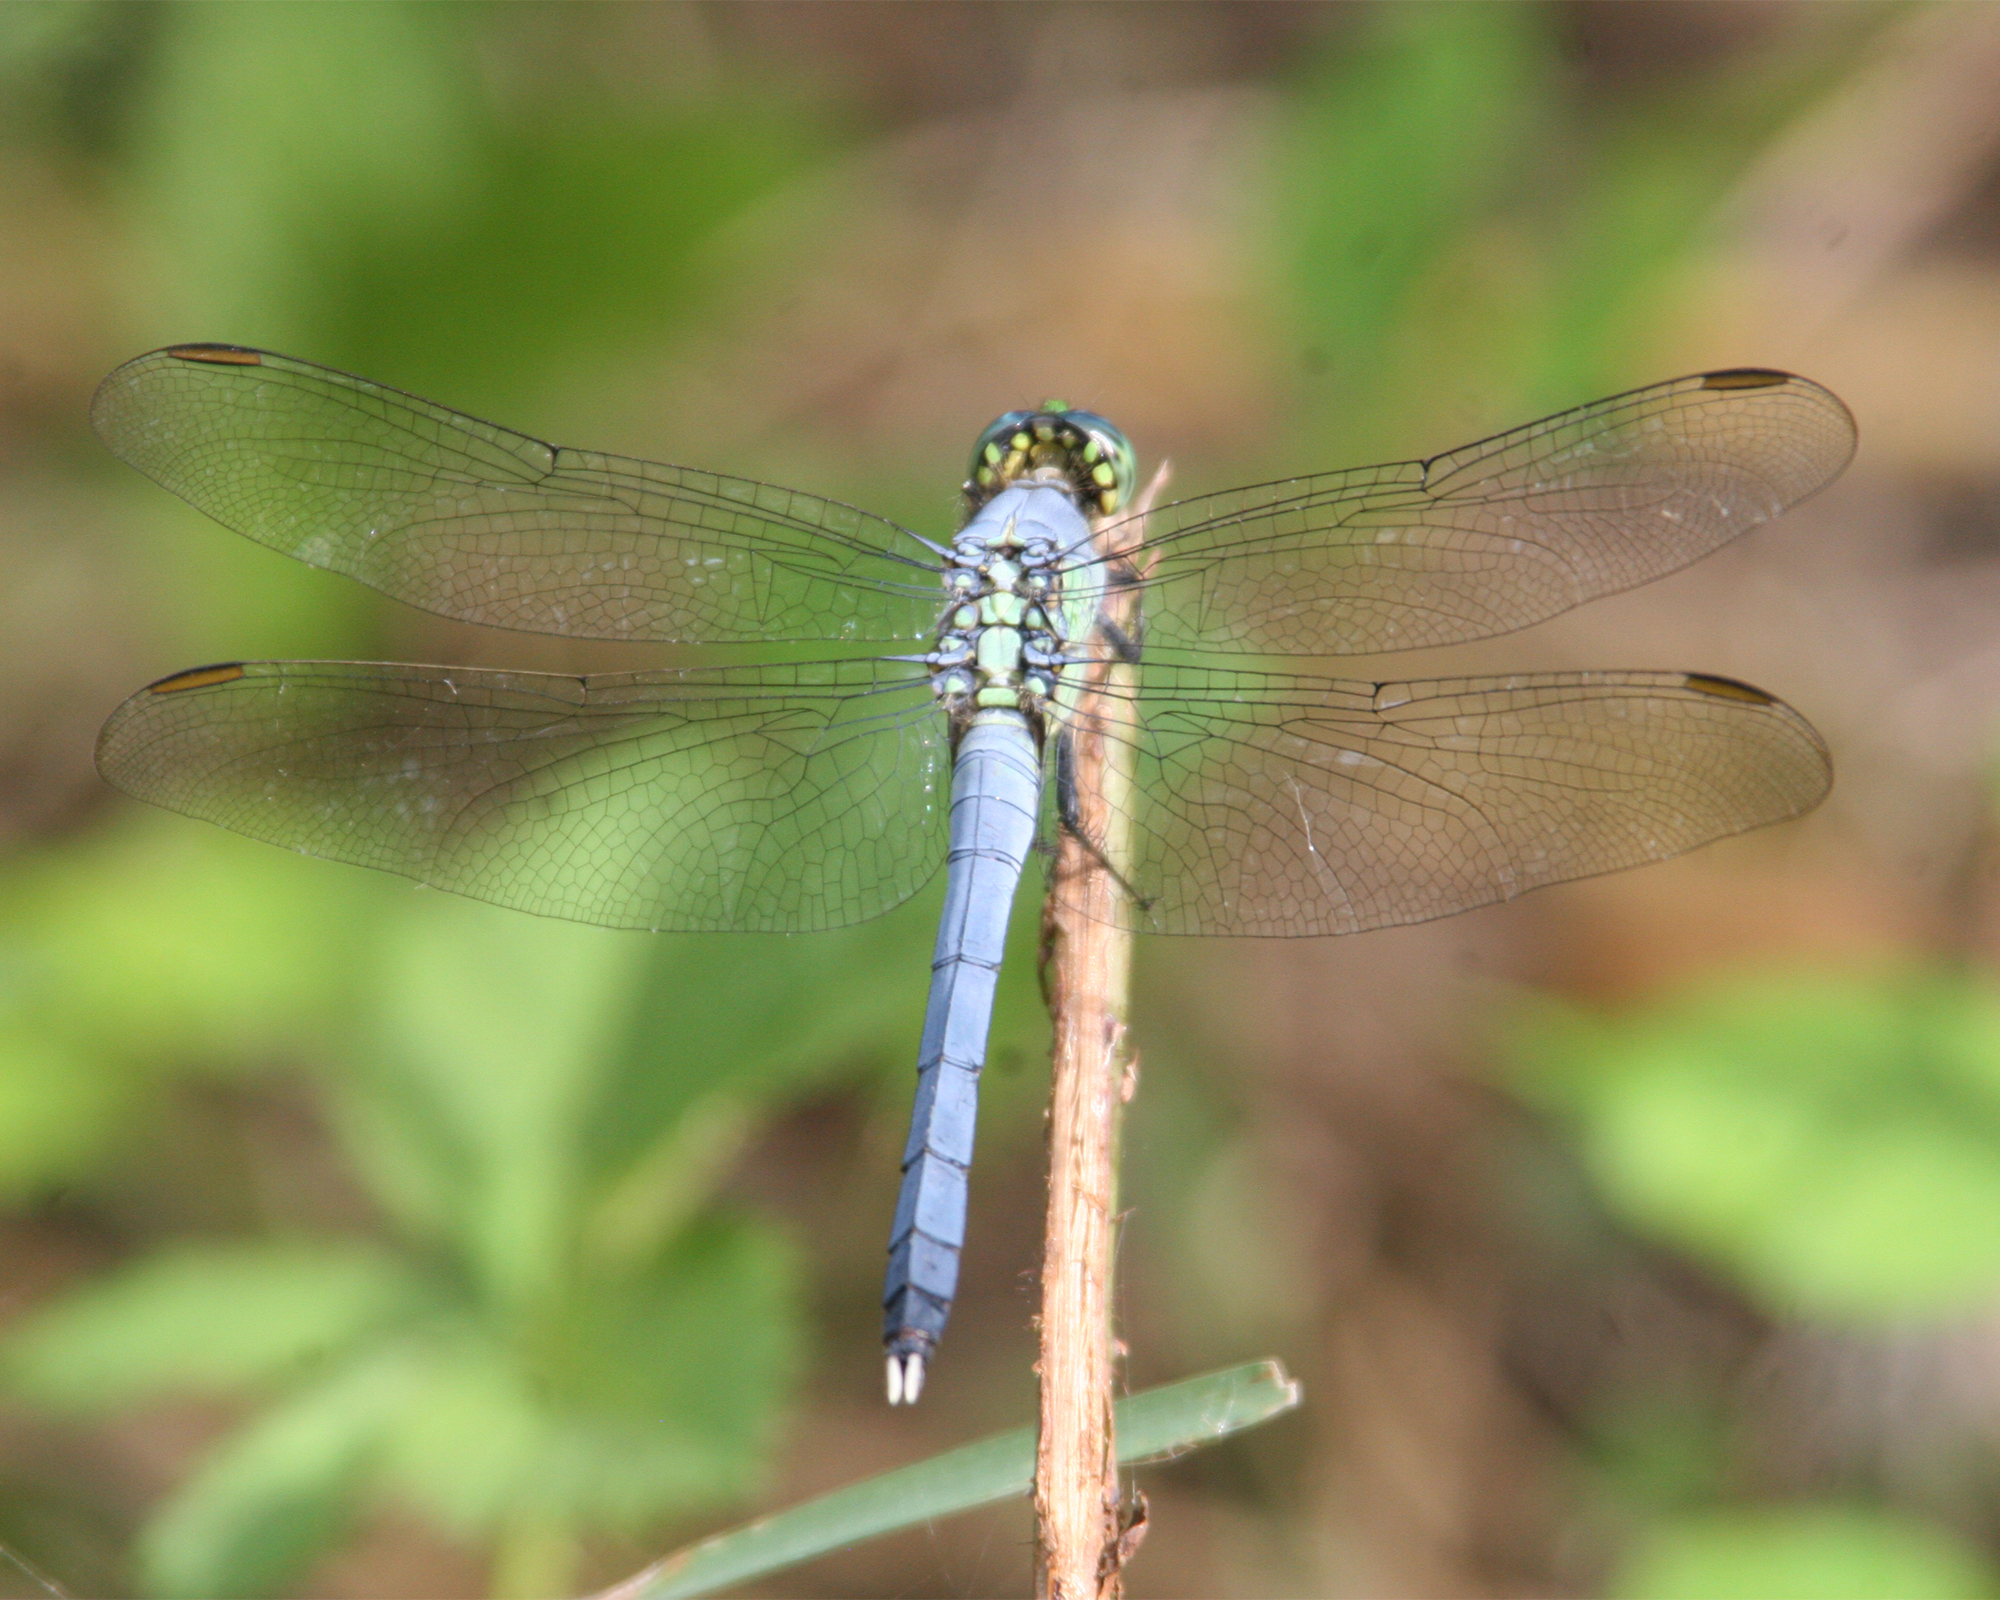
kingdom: Animalia
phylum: Arthropoda
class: Insecta
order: Odonata
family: Libellulidae
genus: Erythemis
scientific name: Erythemis simplicicollis
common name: Eastern pondhawk
